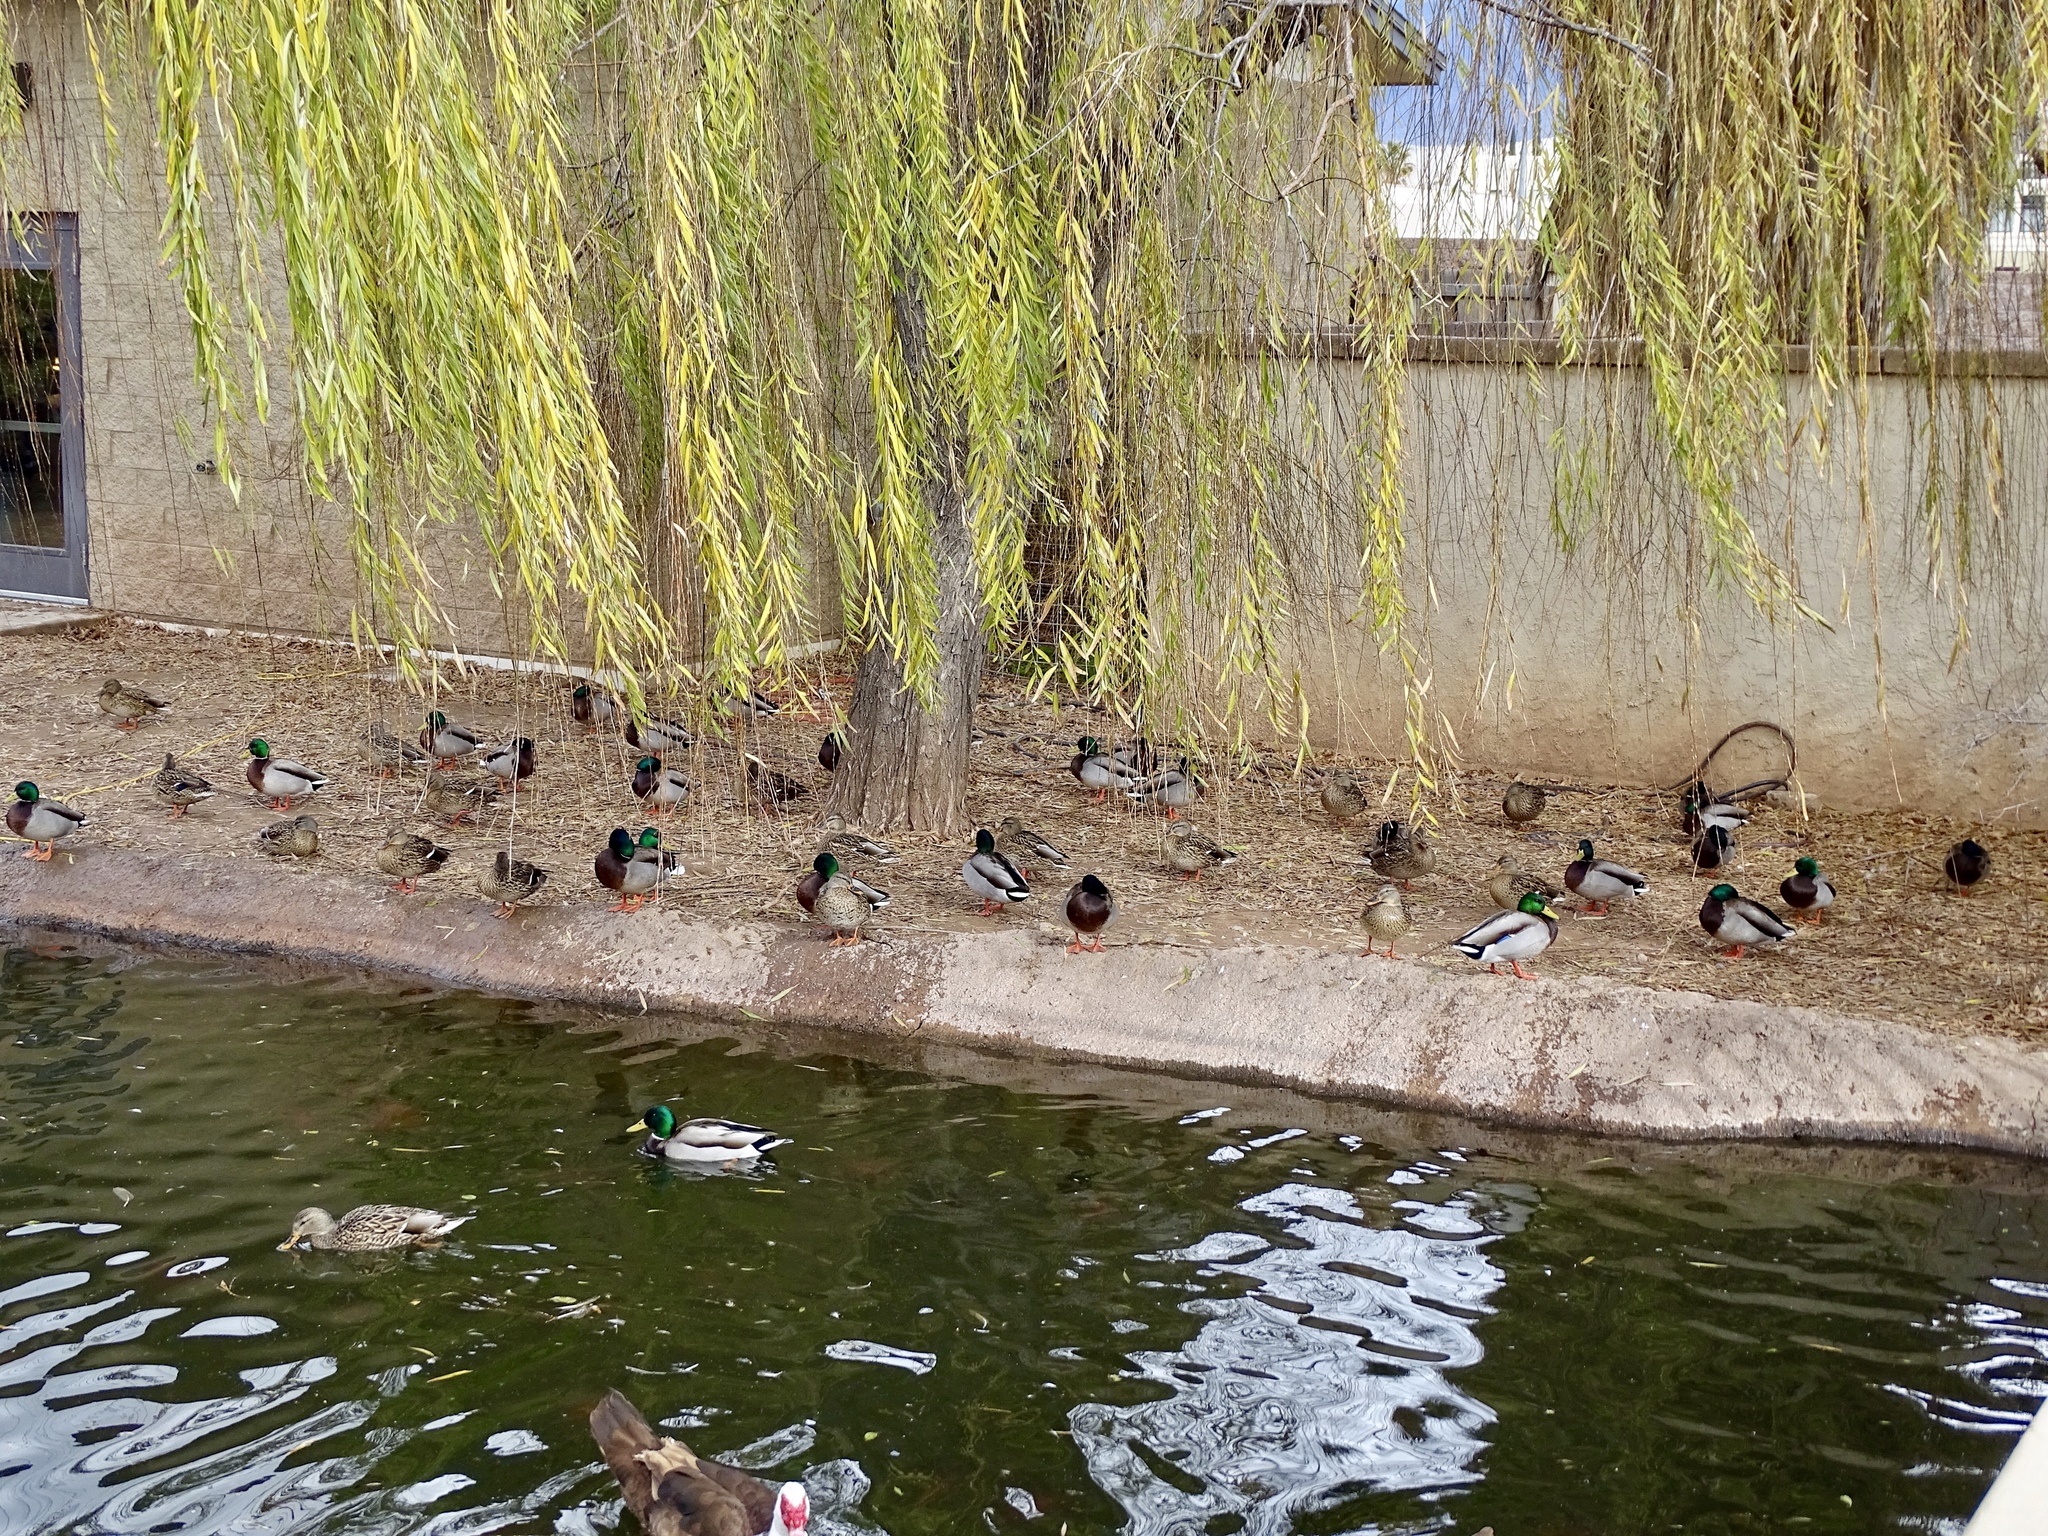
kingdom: Animalia
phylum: Chordata
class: Aves
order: Anseriformes
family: Anatidae
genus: Anas
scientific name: Anas platyrhynchos
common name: Mallard
